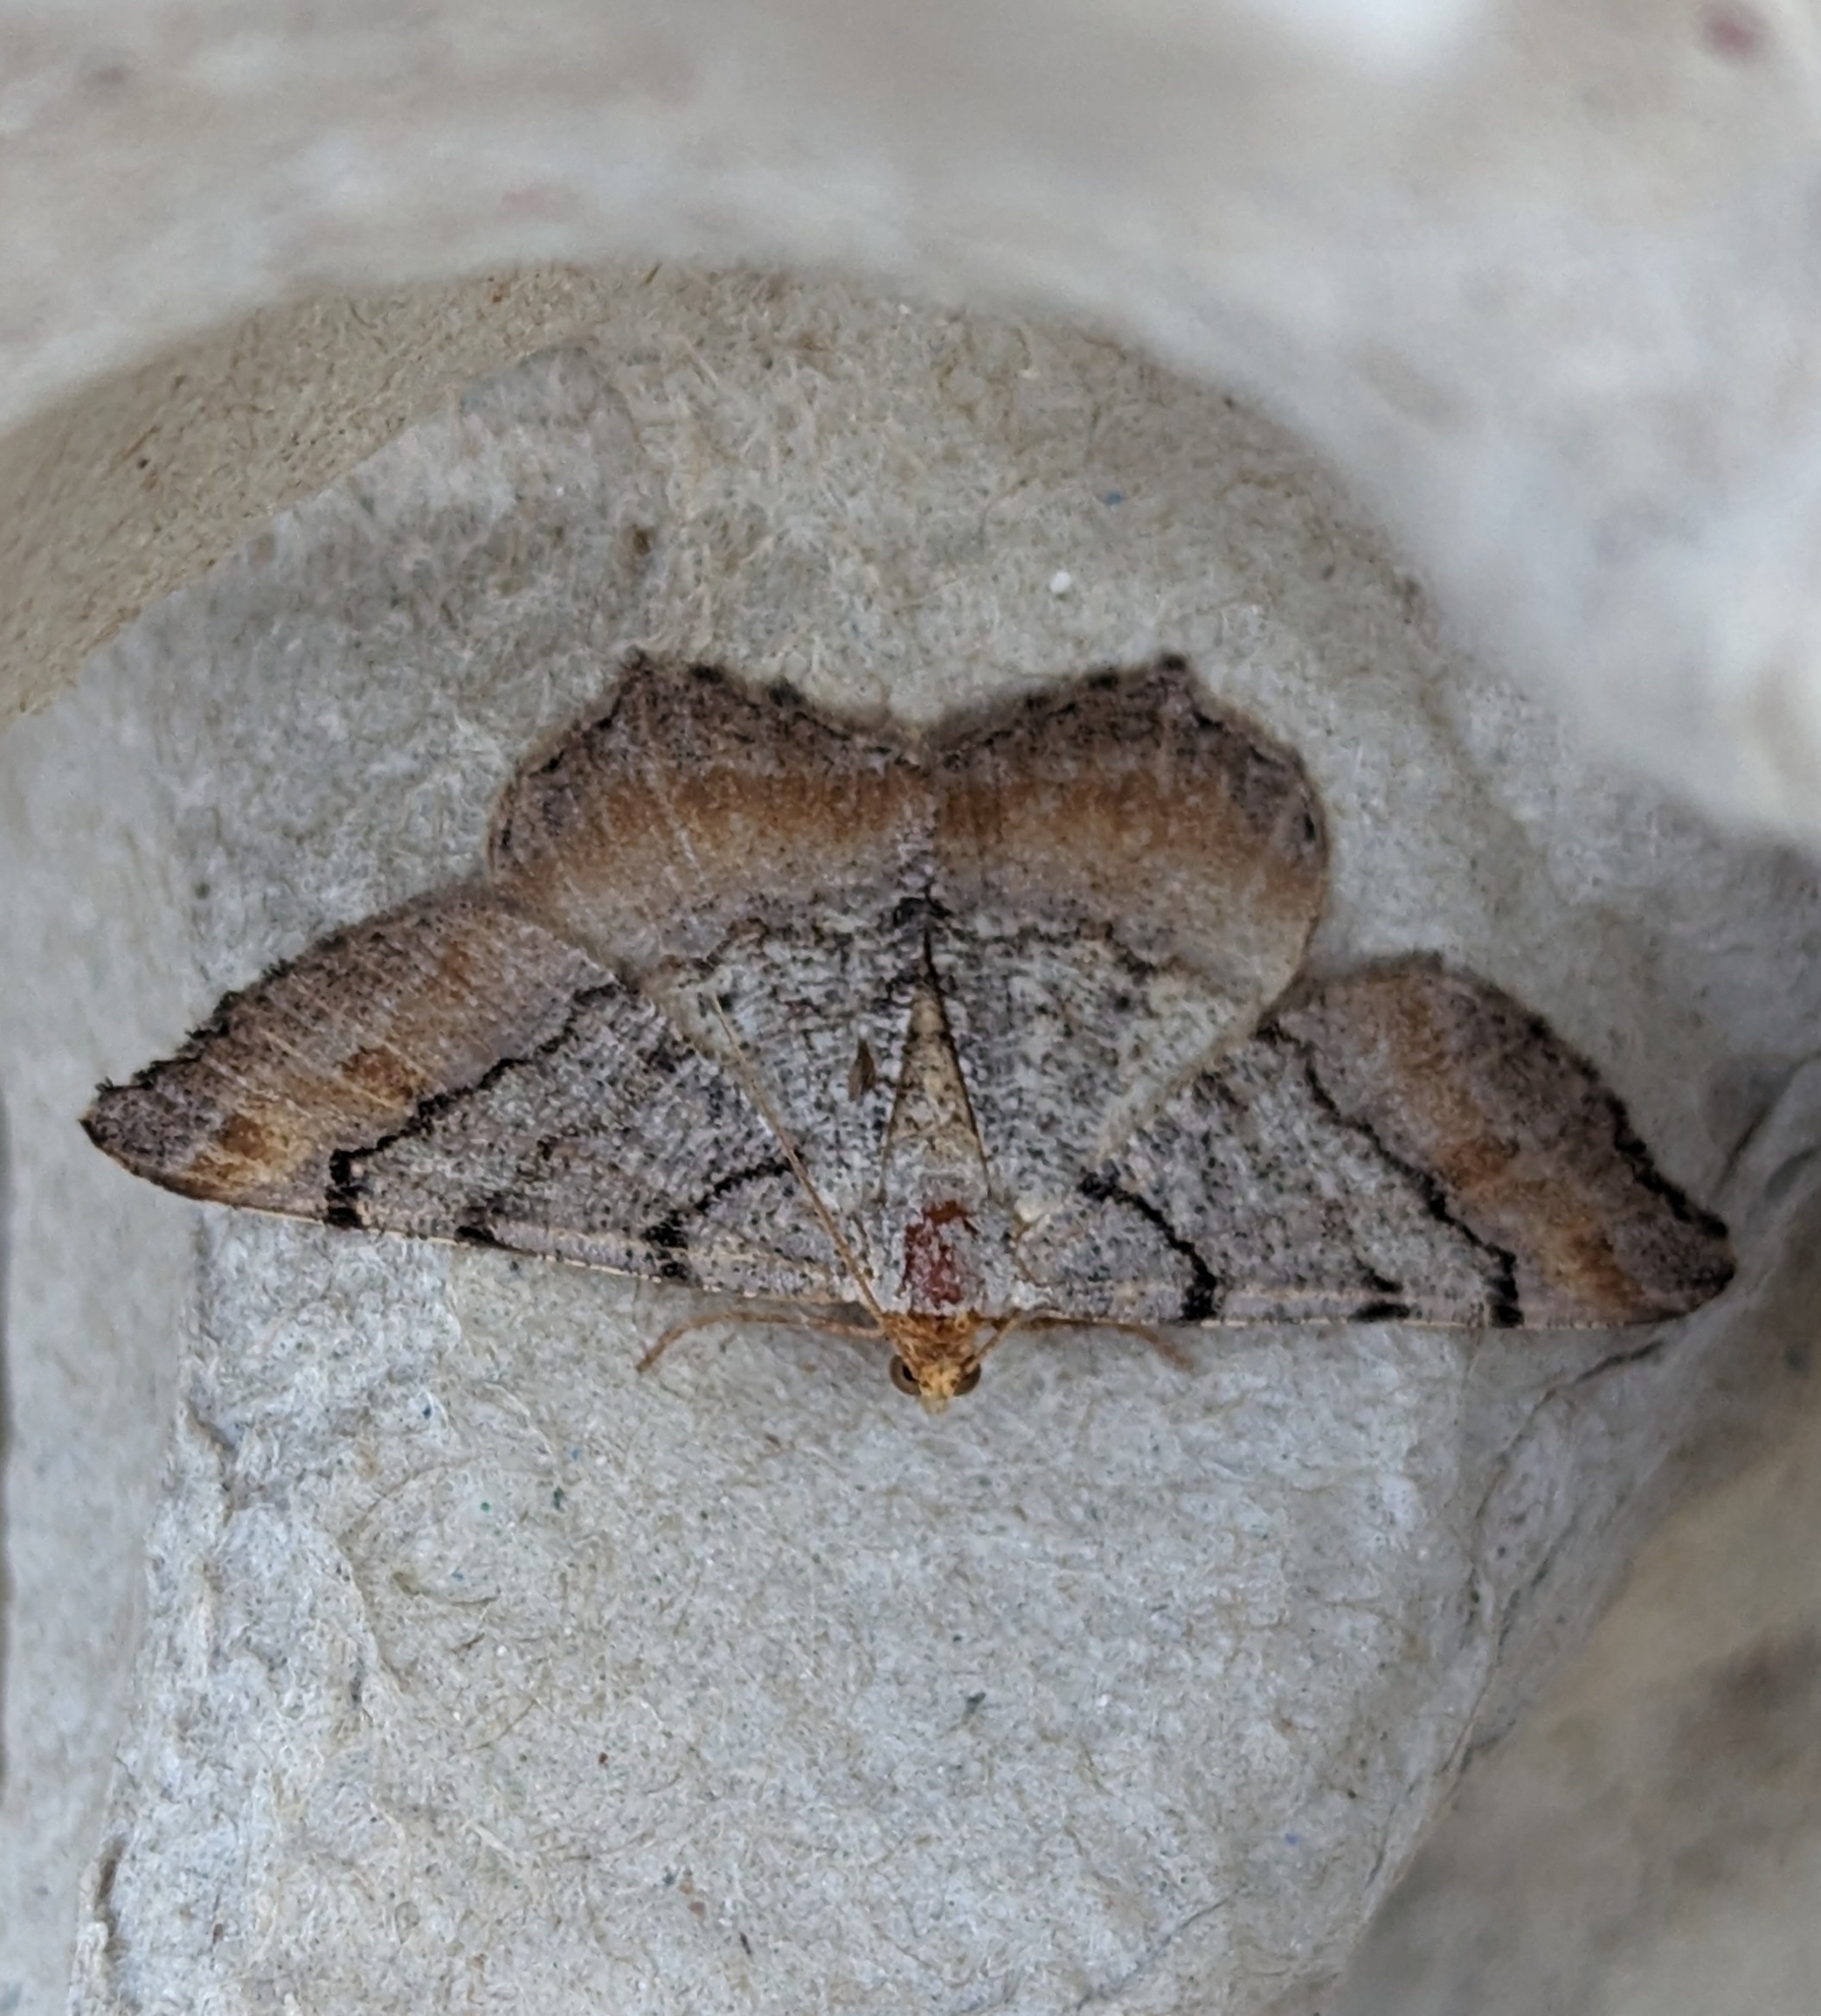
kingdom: Animalia
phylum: Arthropoda
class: Insecta
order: Lepidoptera
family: Geometridae
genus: Macaria
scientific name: Macaria adonis
